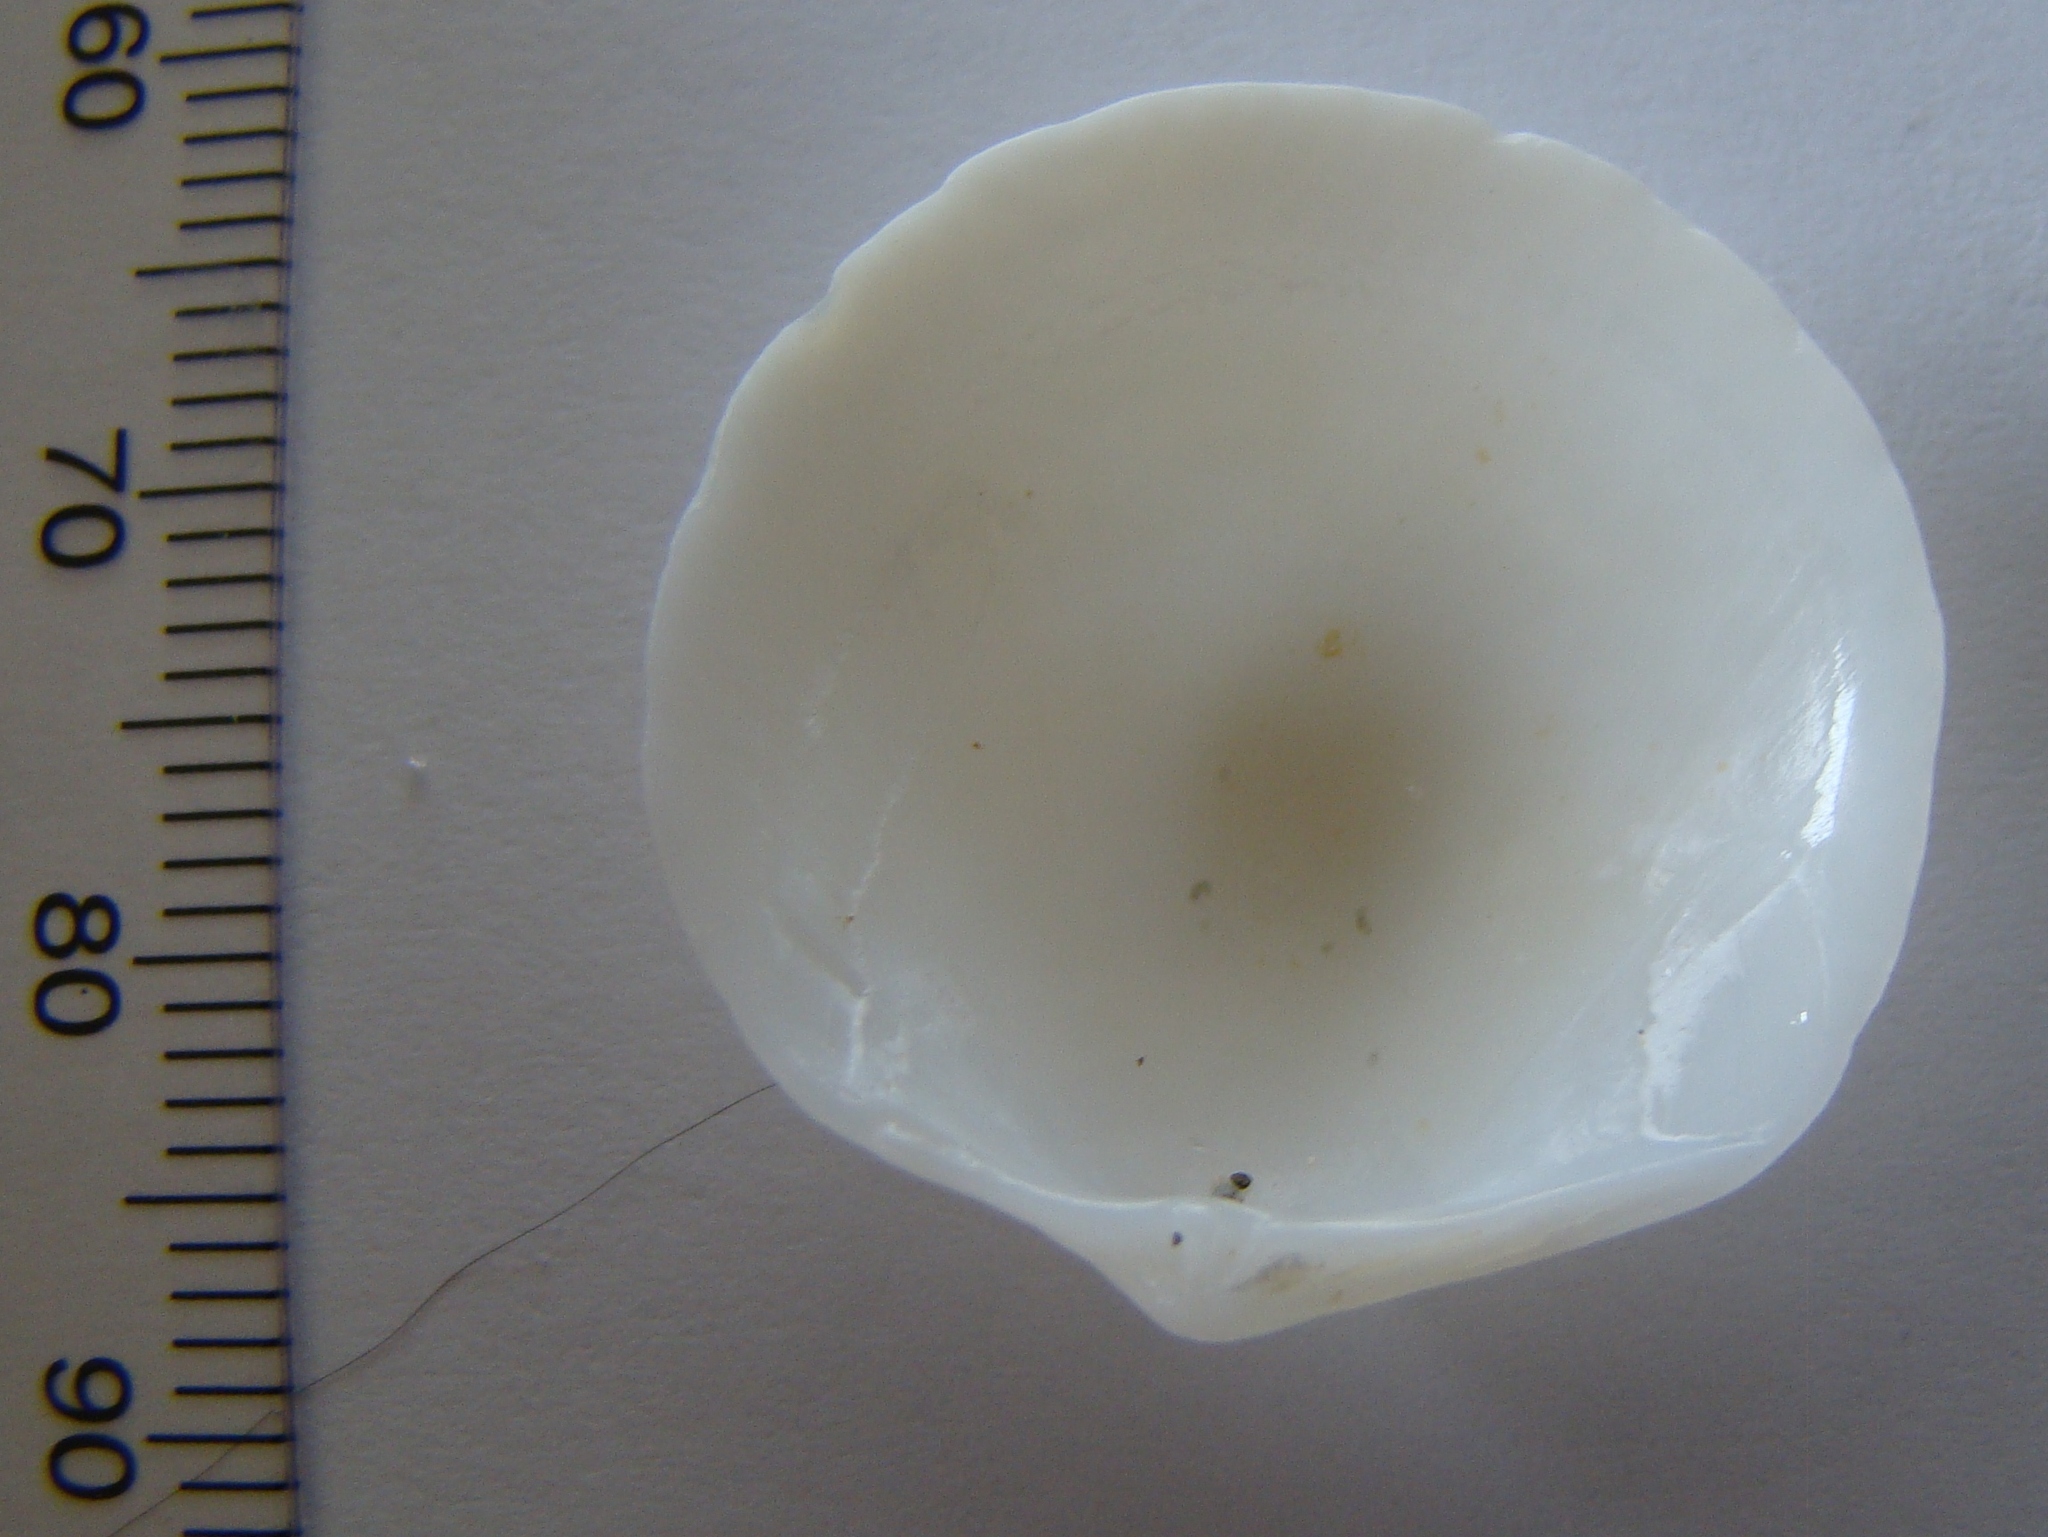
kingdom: Animalia
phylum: Mollusca
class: Bivalvia
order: Lucinida
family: Lucinidae
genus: Divalucina
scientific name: Divalucina cumingi
